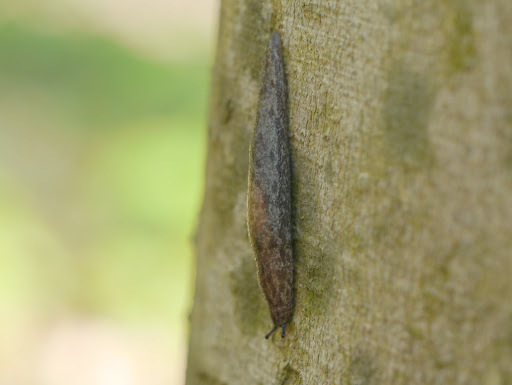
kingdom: Animalia
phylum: Mollusca
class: Gastropoda
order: Stylommatophora
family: Philomycidae
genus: Megapallifera
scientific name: Megapallifera mutabilis
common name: Changeable mantleslug
